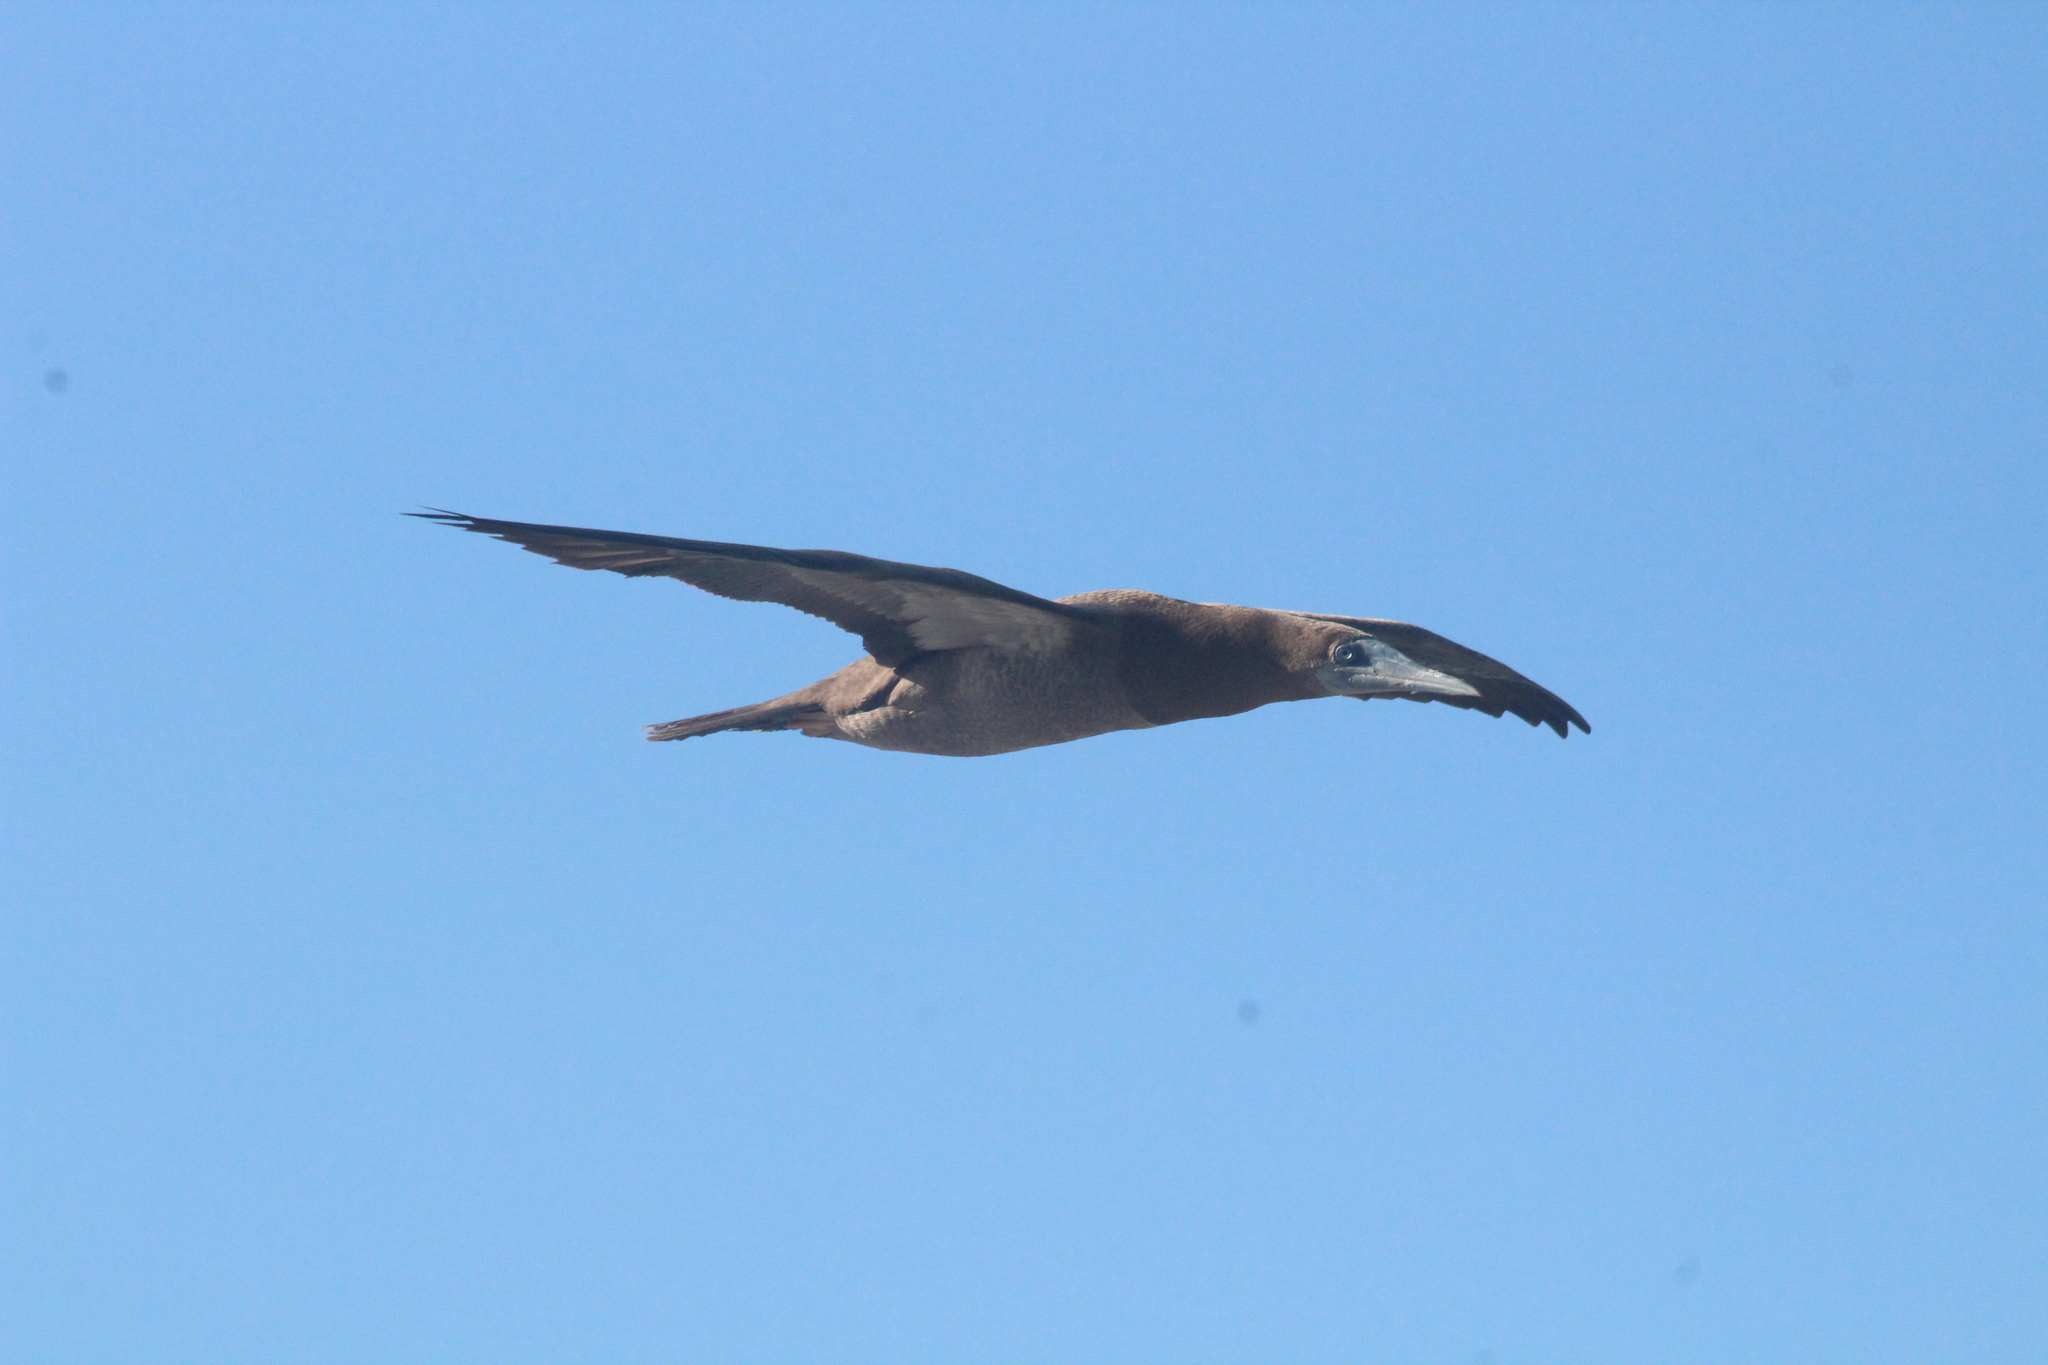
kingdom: Animalia
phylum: Chordata
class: Aves
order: Suliformes
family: Sulidae
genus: Sula
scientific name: Sula leucogaster
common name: Brown booby
